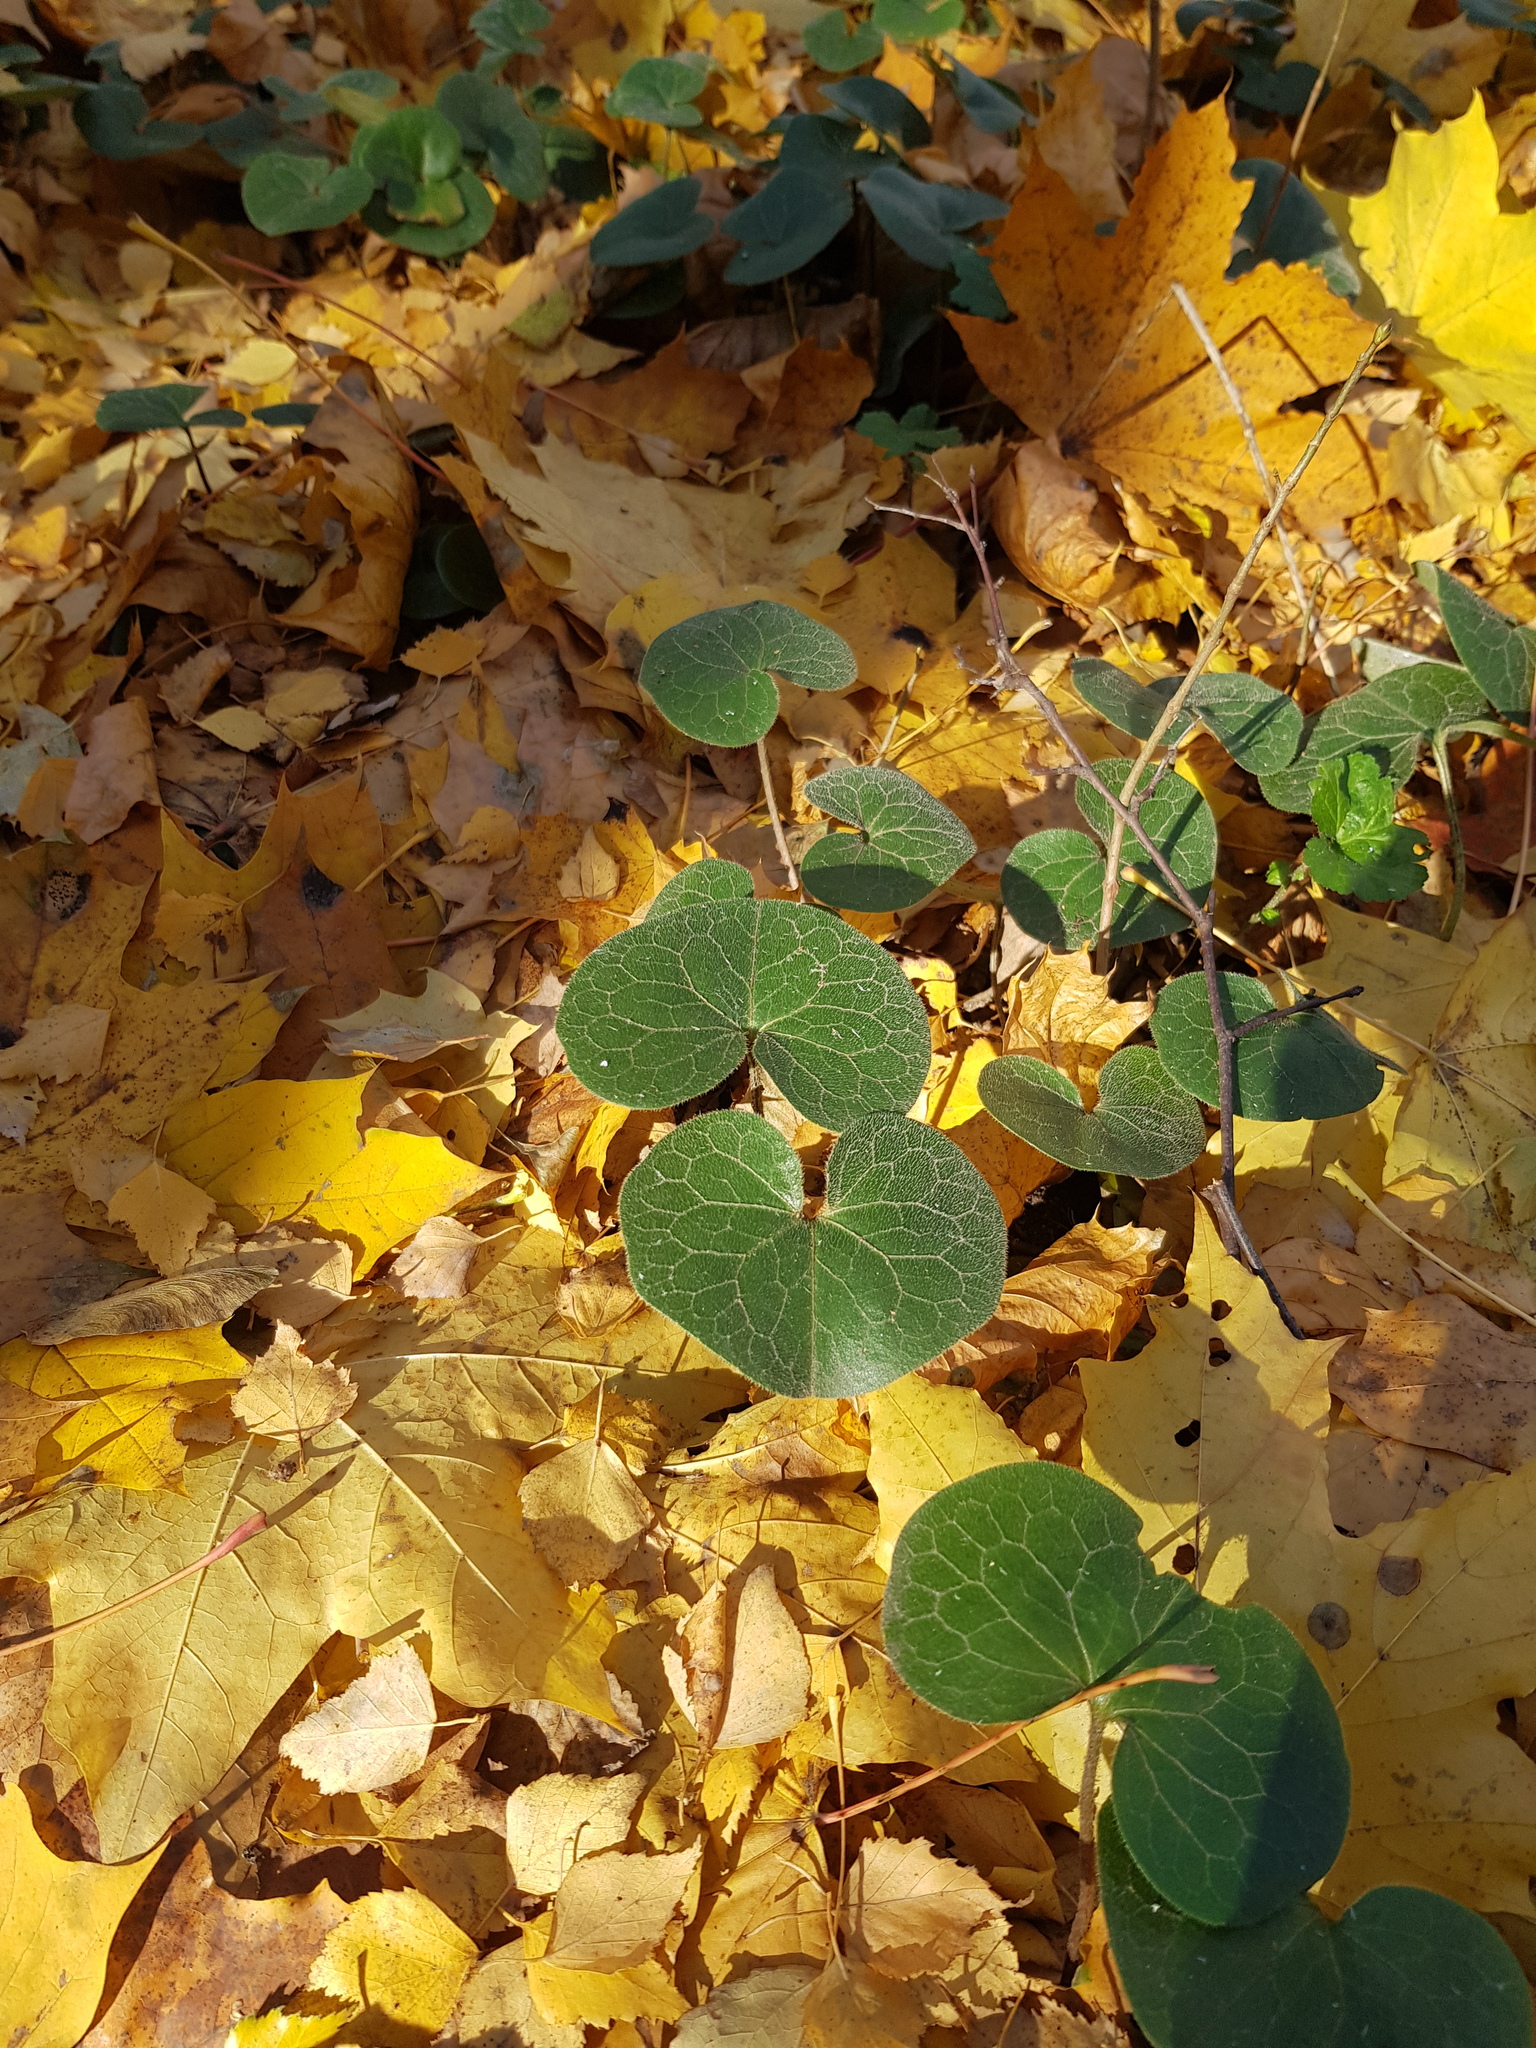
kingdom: Plantae
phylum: Tracheophyta
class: Magnoliopsida
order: Piperales
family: Aristolochiaceae
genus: Asarum
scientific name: Asarum europaeum
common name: Asarabacca
